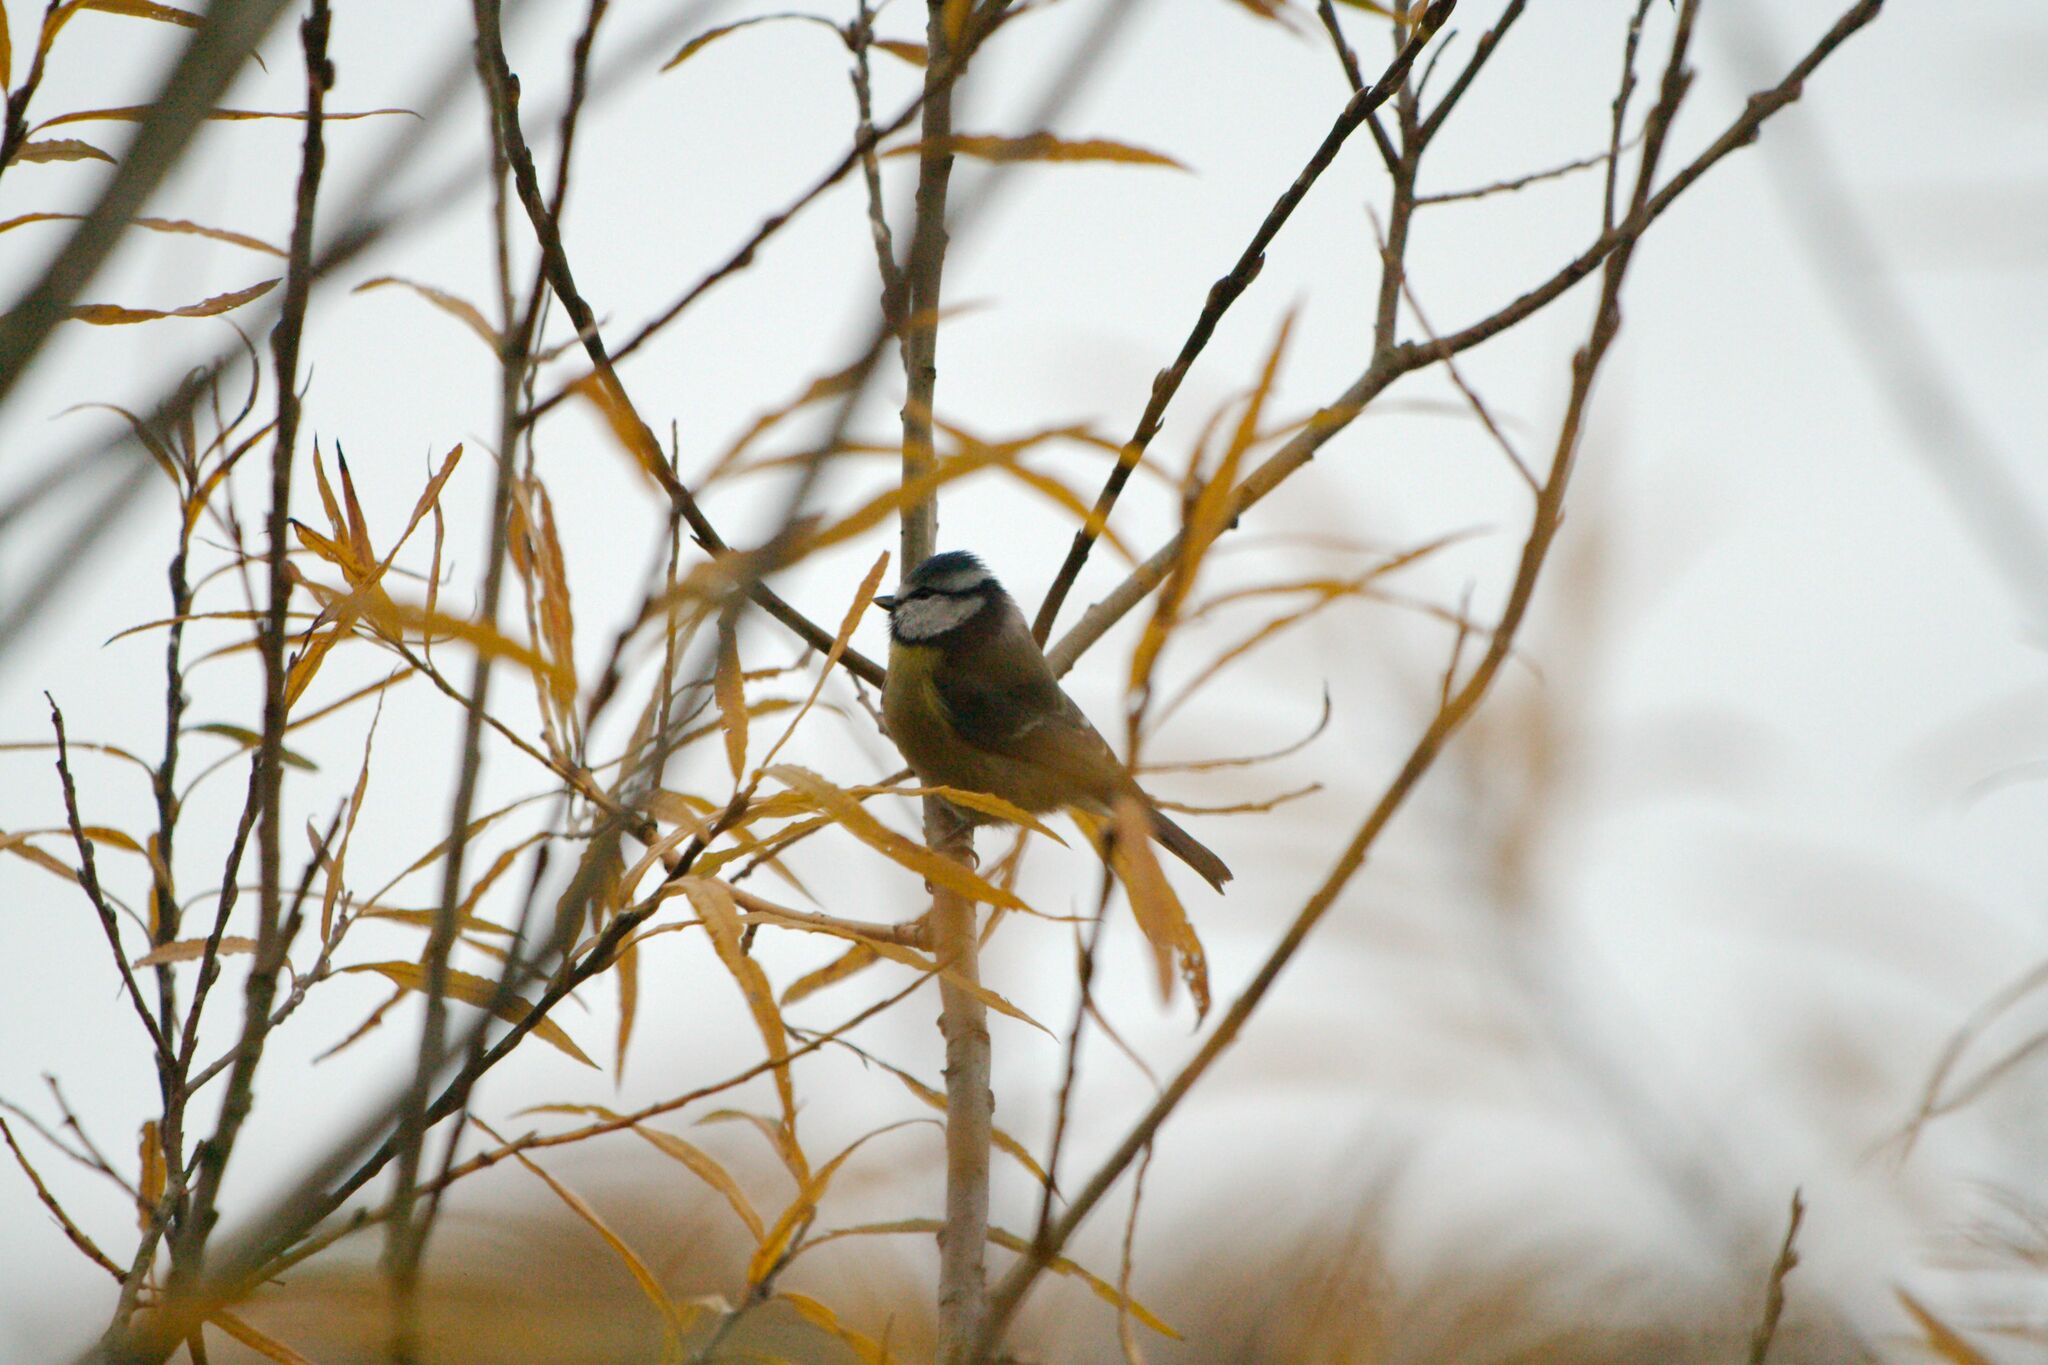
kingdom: Animalia
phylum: Chordata
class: Aves
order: Passeriformes
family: Paridae
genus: Cyanistes
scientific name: Cyanistes caeruleus
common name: Eurasian blue tit
